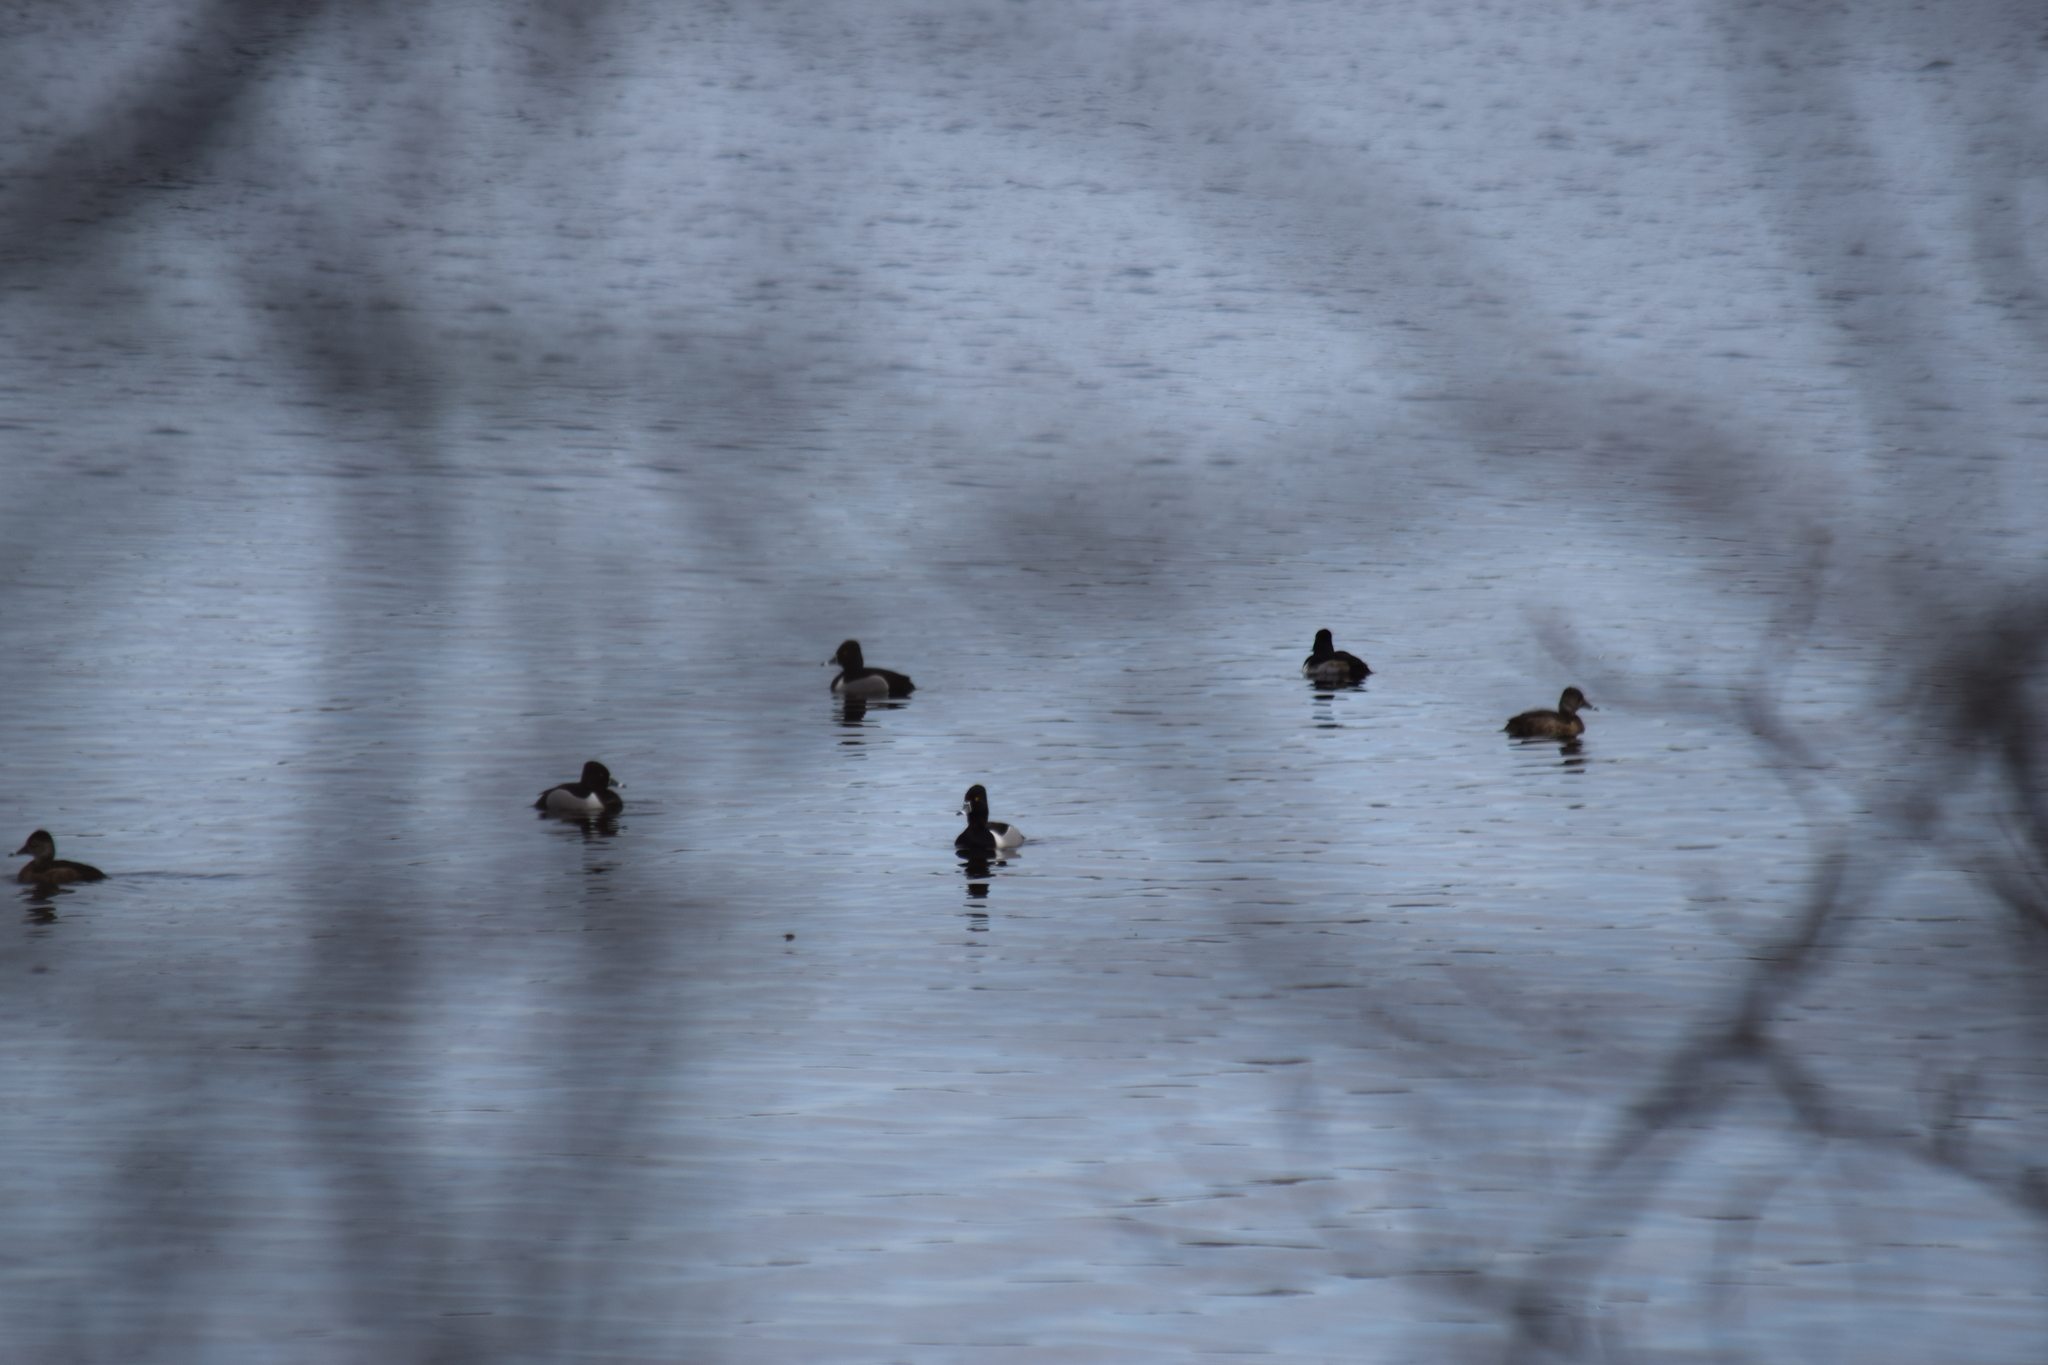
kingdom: Animalia
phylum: Chordata
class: Aves
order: Anseriformes
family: Anatidae
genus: Aythya
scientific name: Aythya collaris
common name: Ring-necked duck
